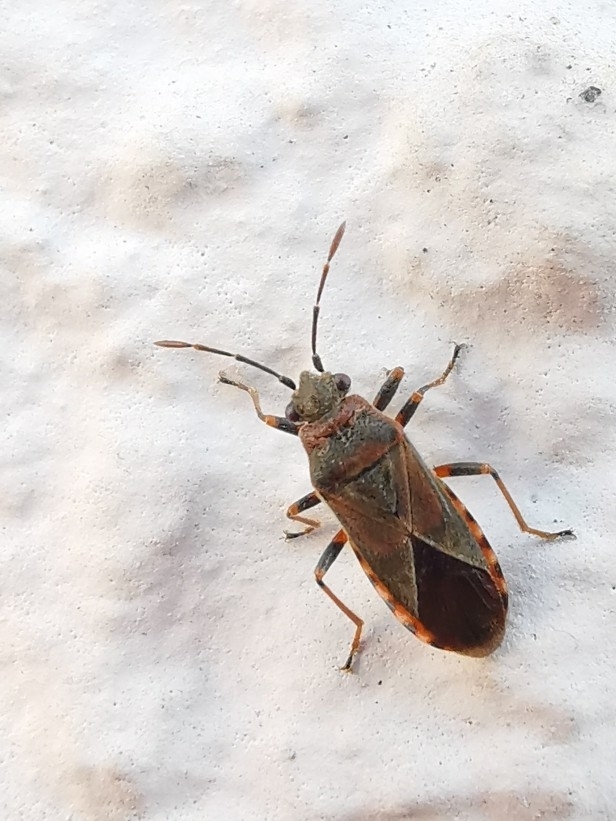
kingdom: Animalia
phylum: Arthropoda
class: Insecta
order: Hemiptera
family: Lygaeidae
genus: Arocatus
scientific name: Arocatus melanocephalus
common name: Lygaeid bug
